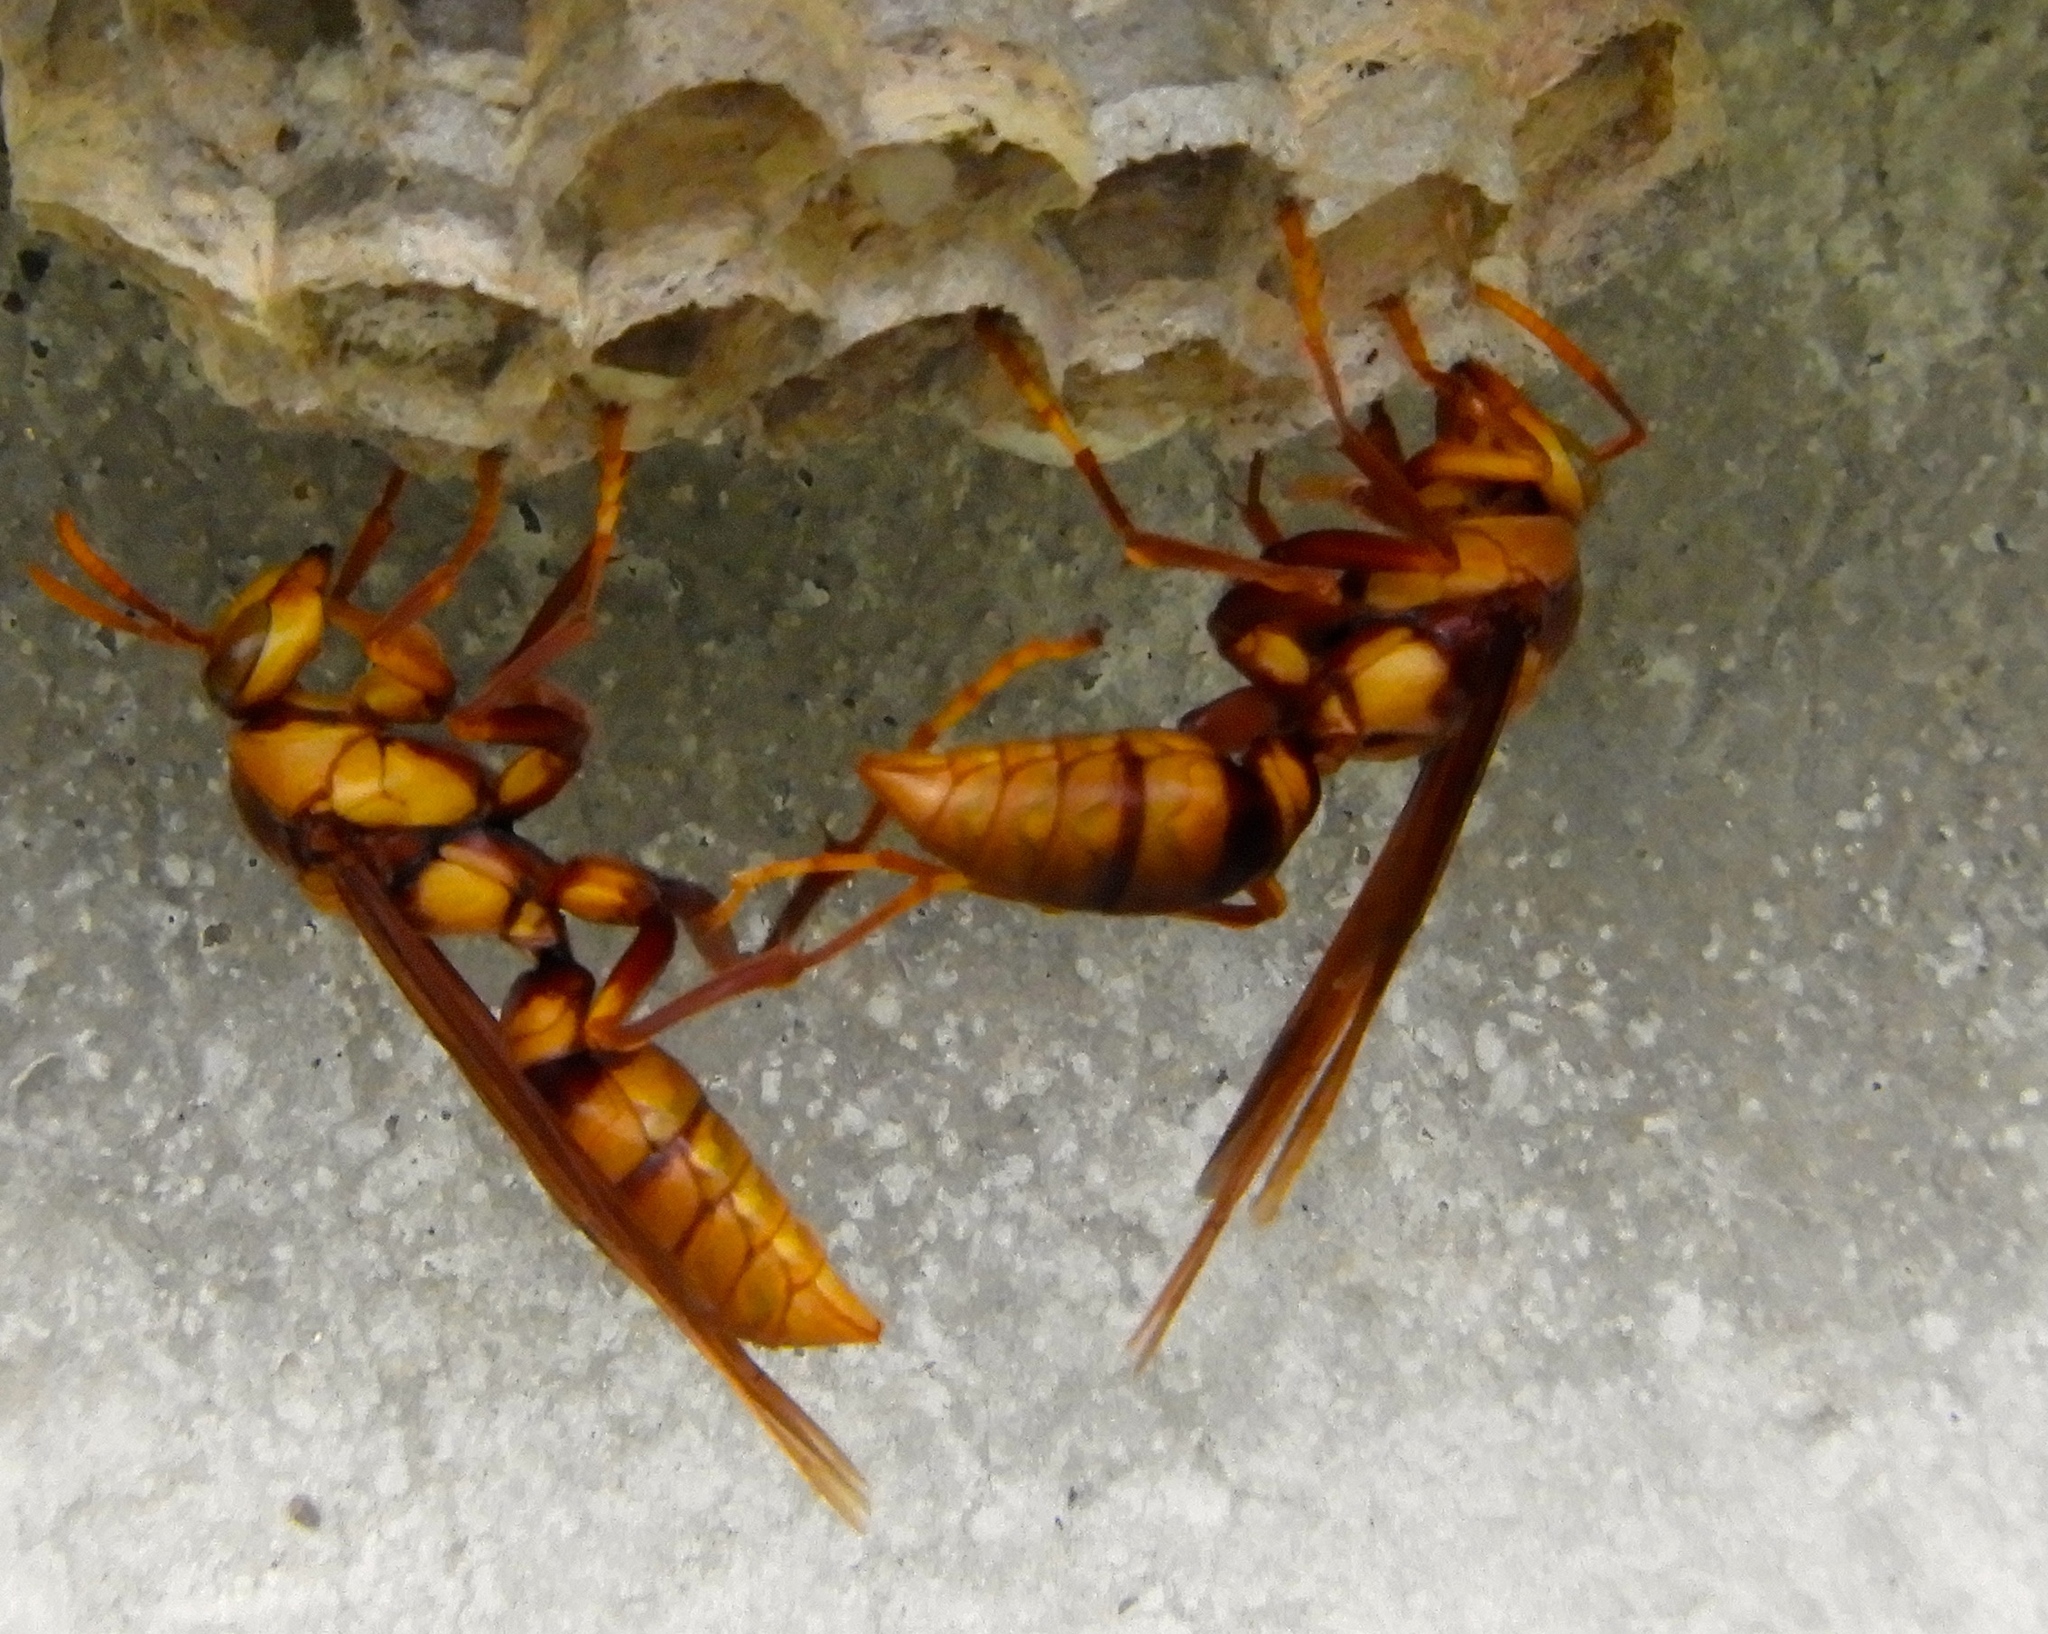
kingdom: Animalia
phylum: Arthropoda
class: Insecta
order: Hymenoptera
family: Eumenidae
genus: Polistes
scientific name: Polistes major
